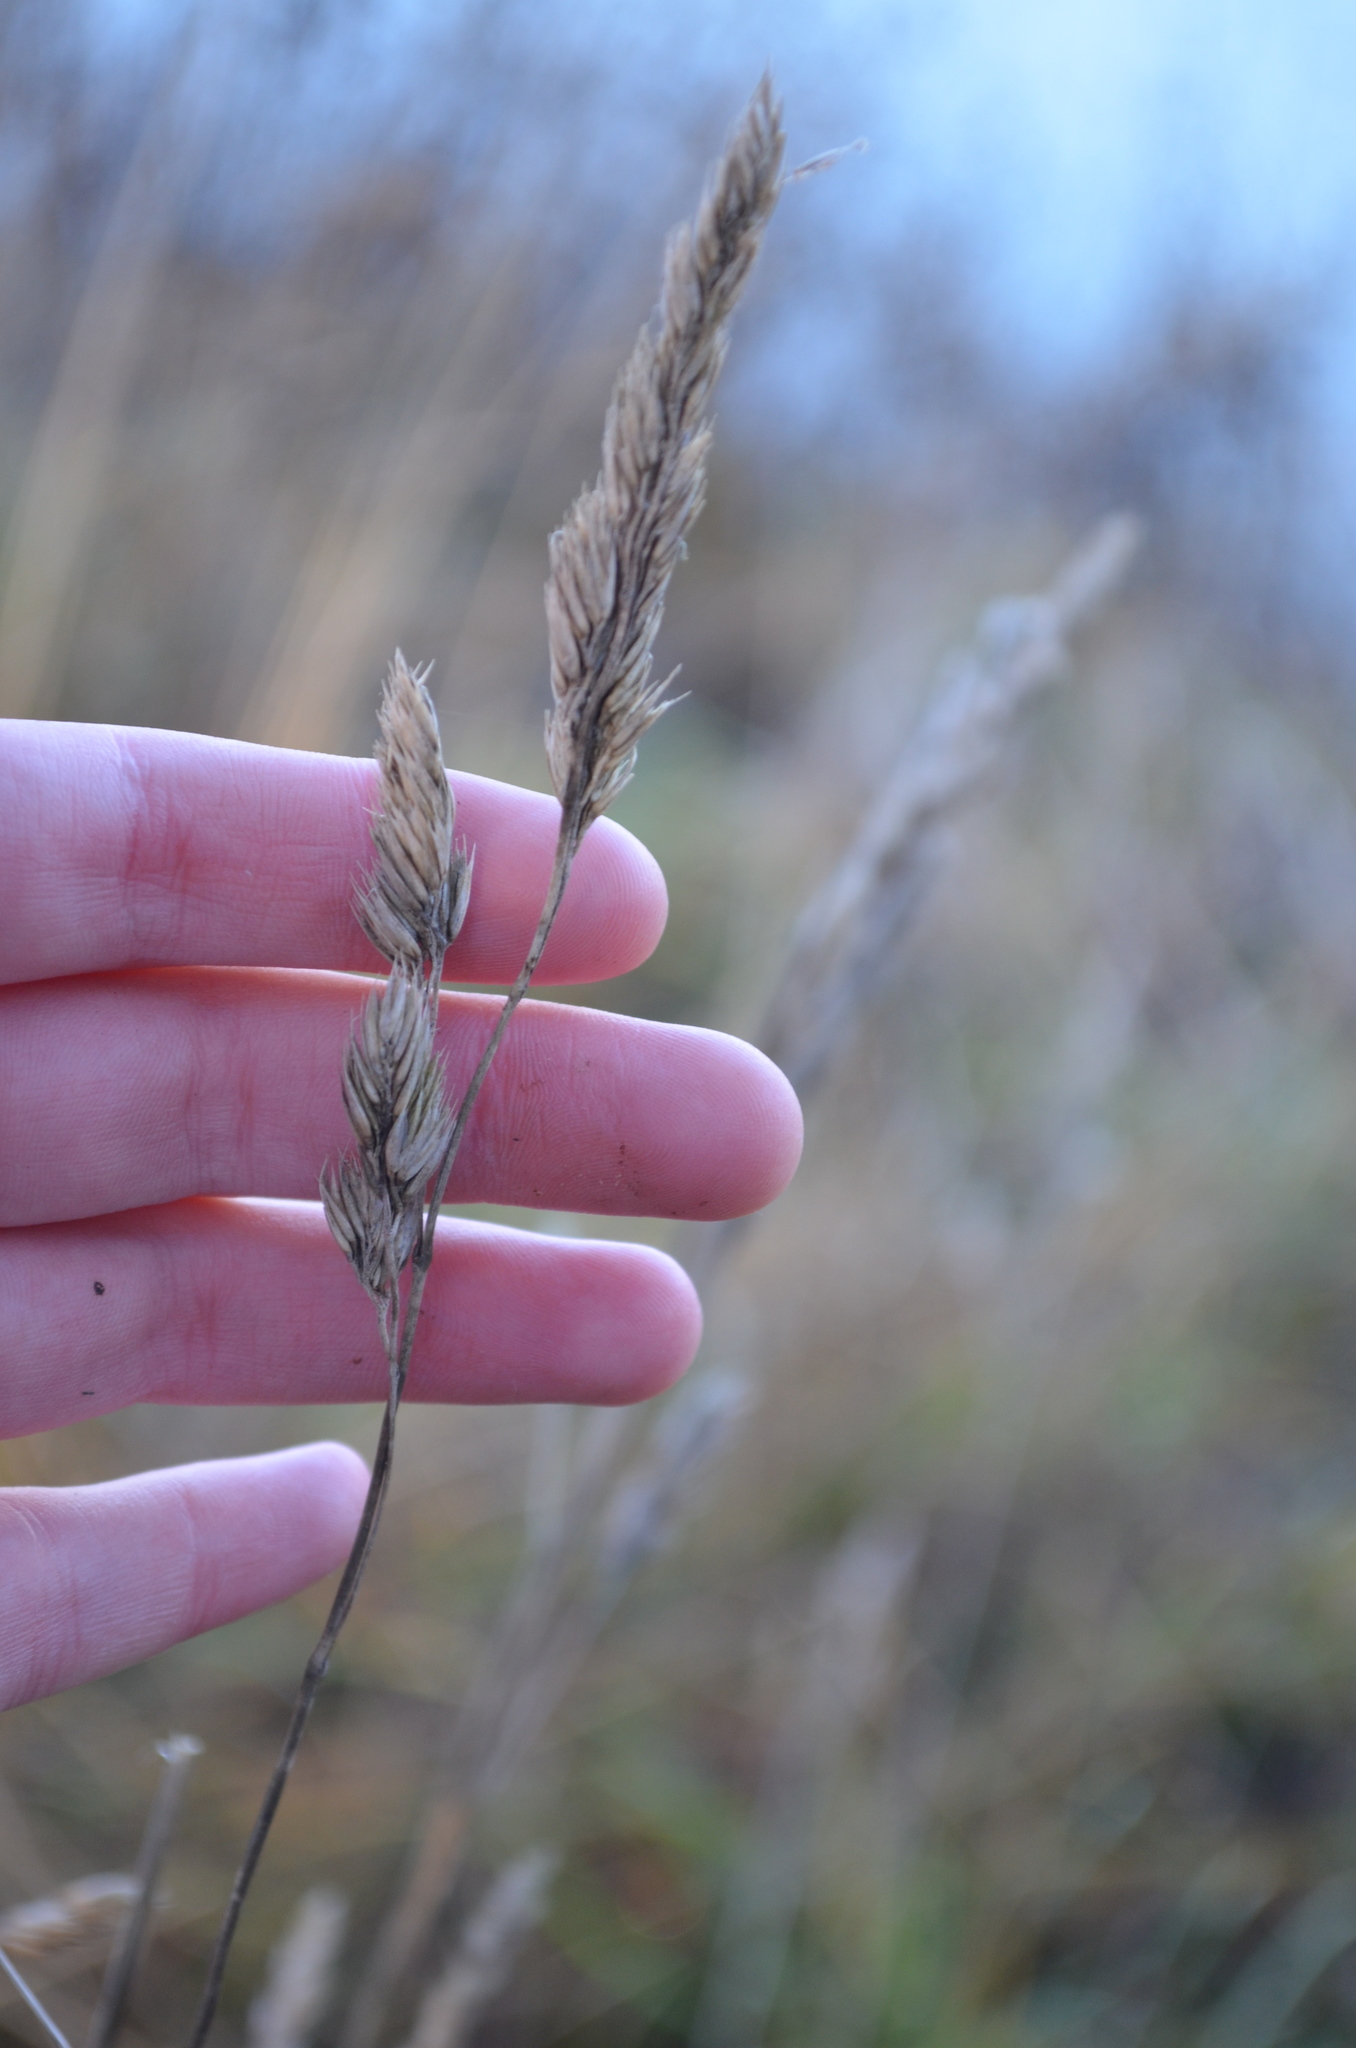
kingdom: Plantae
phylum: Tracheophyta
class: Liliopsida
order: Poales
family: Poaceae
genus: Dactylis
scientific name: Dactylis glomerata
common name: Orchardgrass
